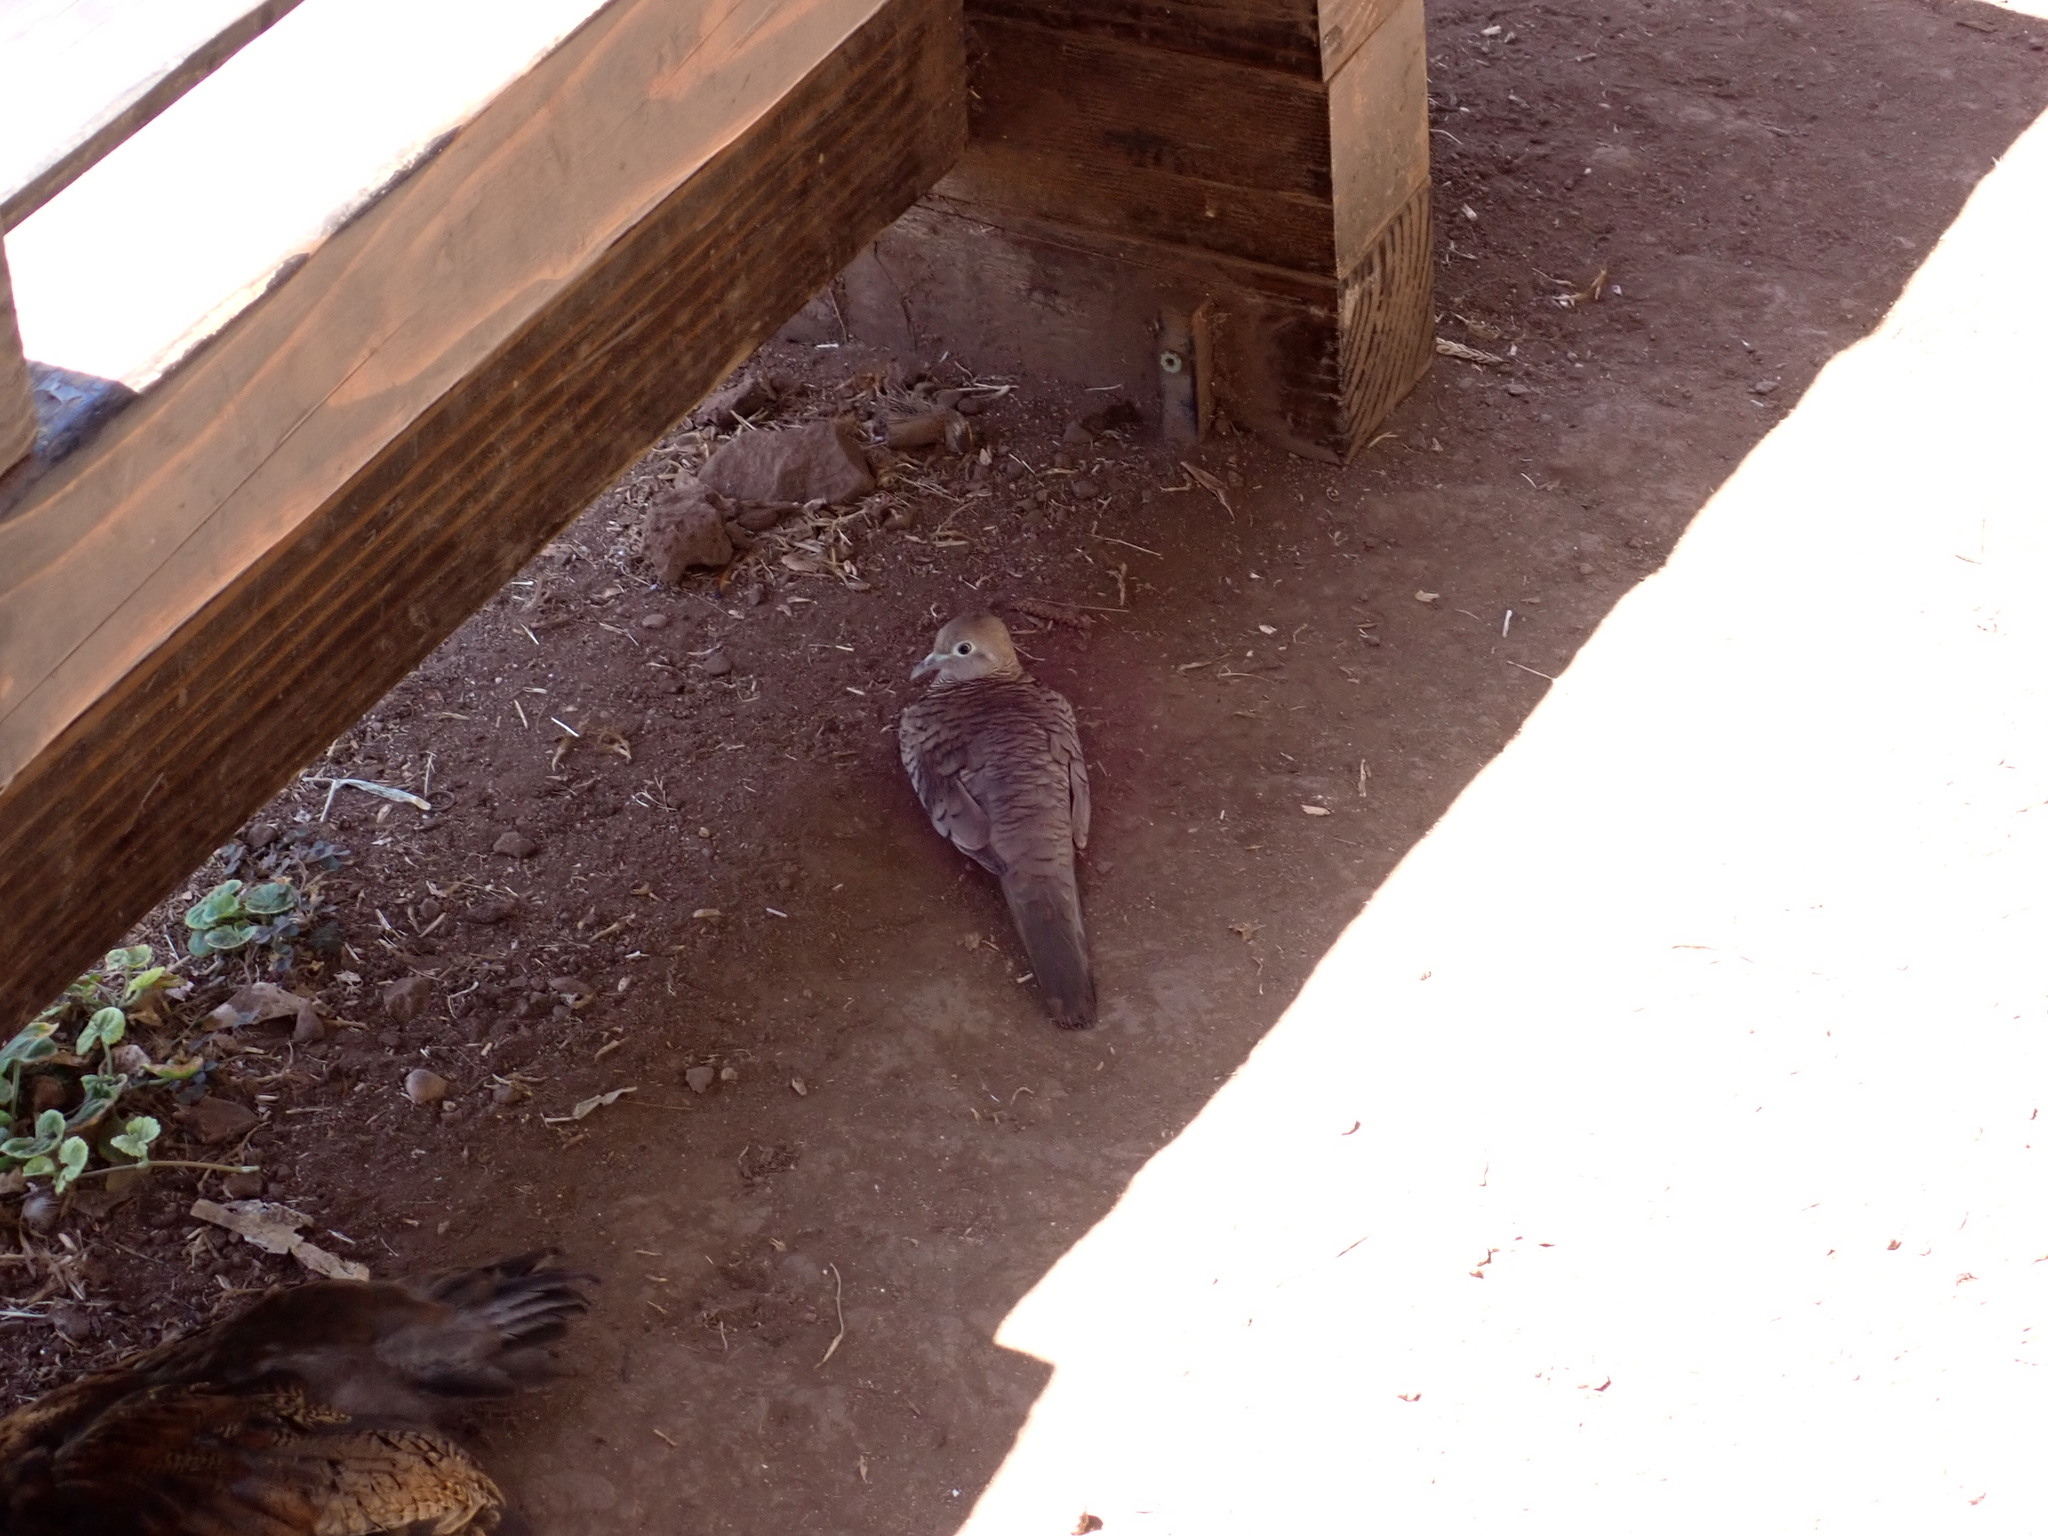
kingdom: Animalia
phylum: Chordata
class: Aves
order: Columbiformes
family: Columbidae
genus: Geopelia
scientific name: Geopelia striata
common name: Zebra dove
